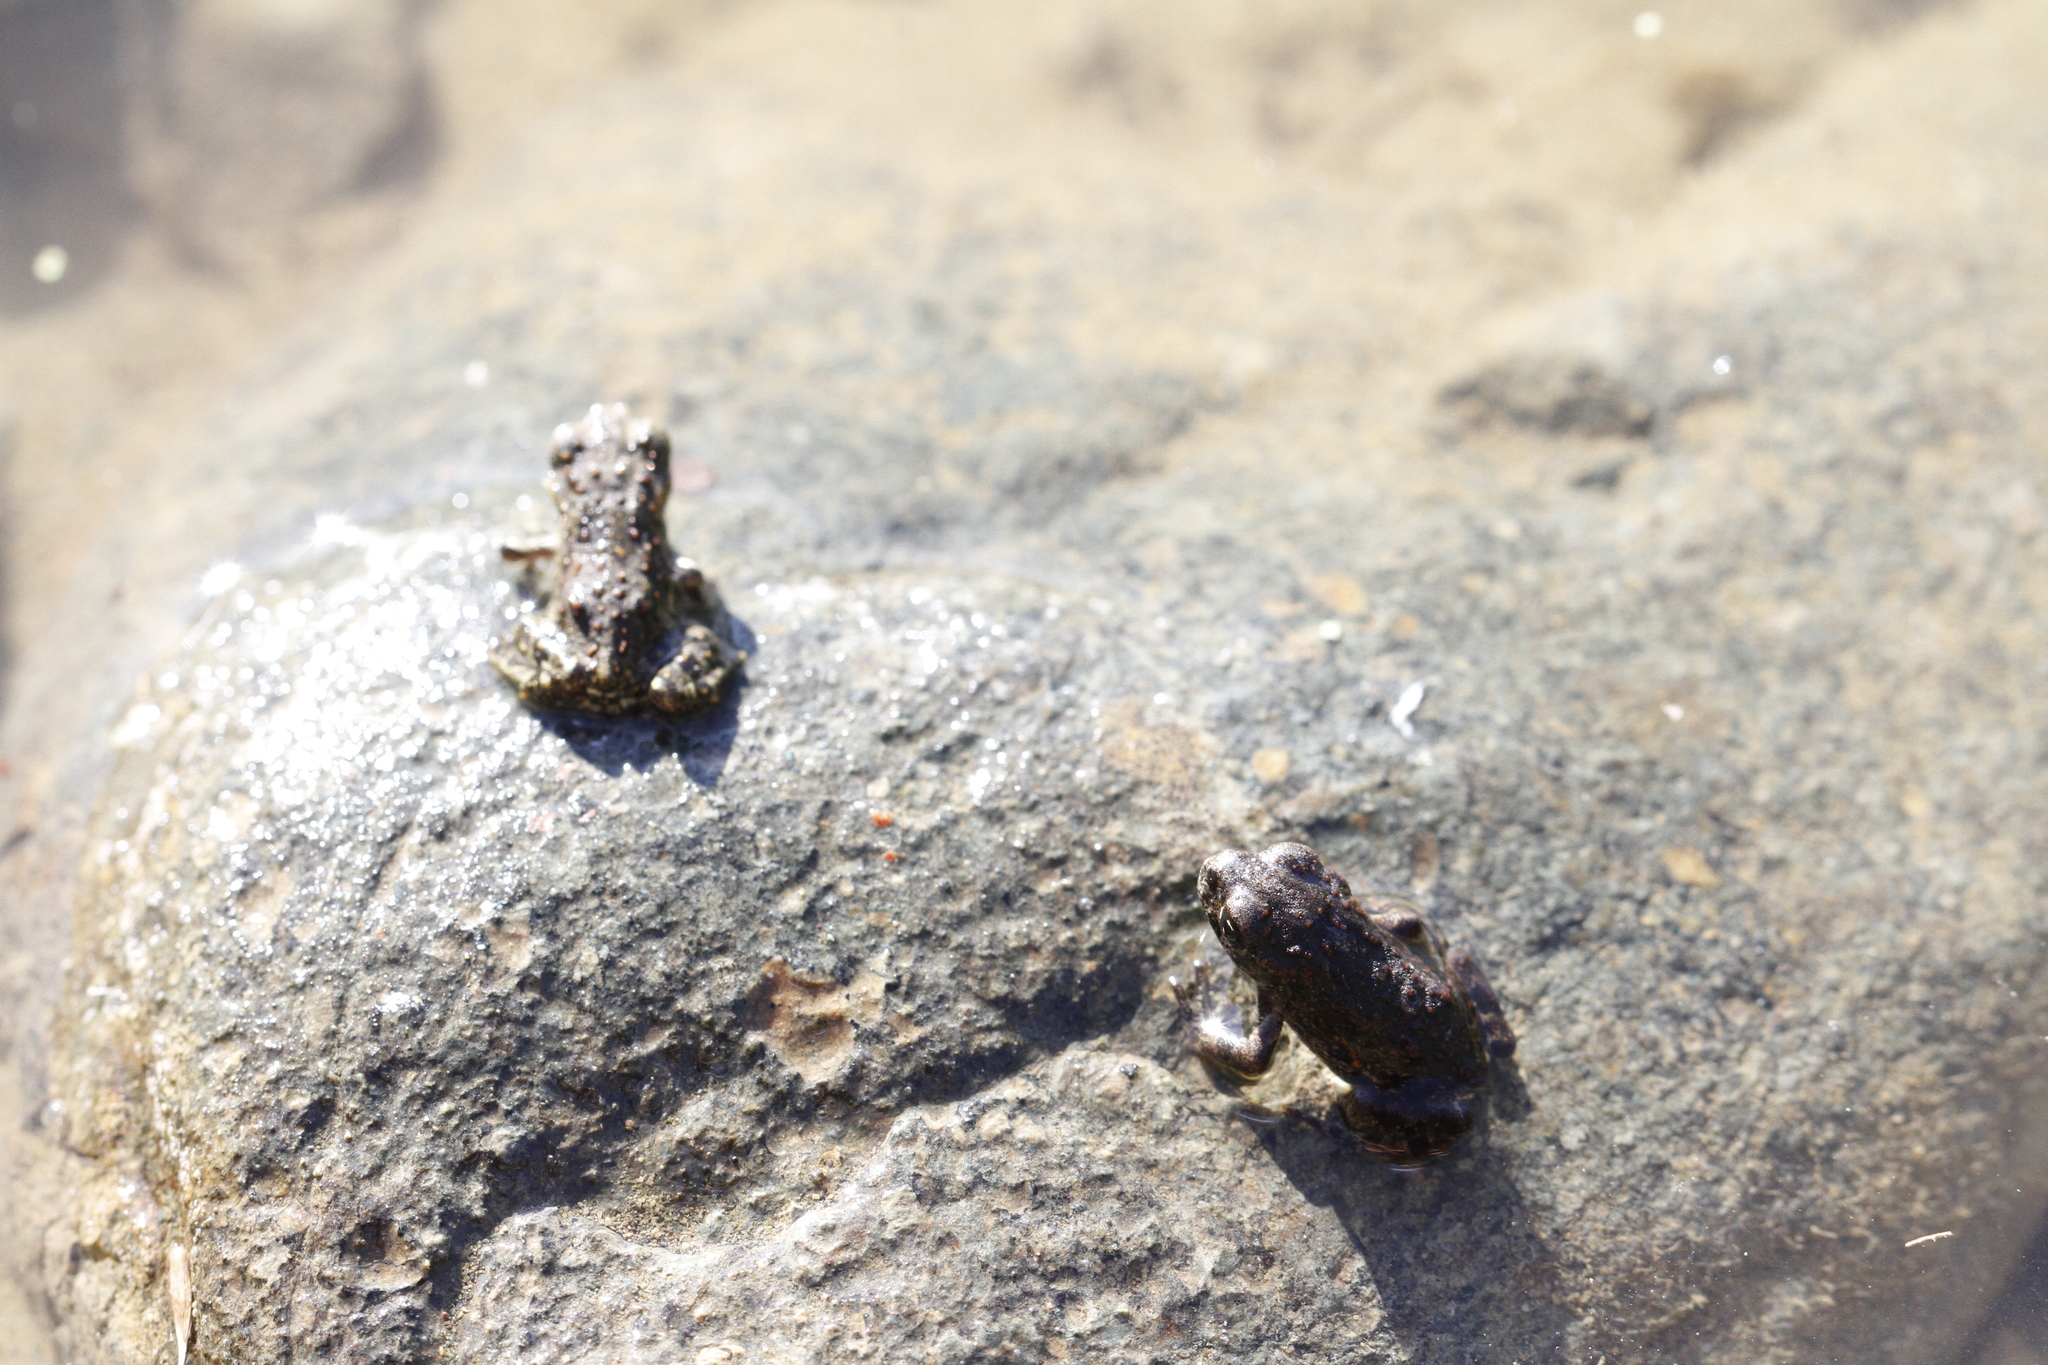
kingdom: Animalia
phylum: Chordata
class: Amphibia
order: Anura
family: Bufonidae
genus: Anaxyrus
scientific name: Anaxyrus boreas
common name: Western toad
